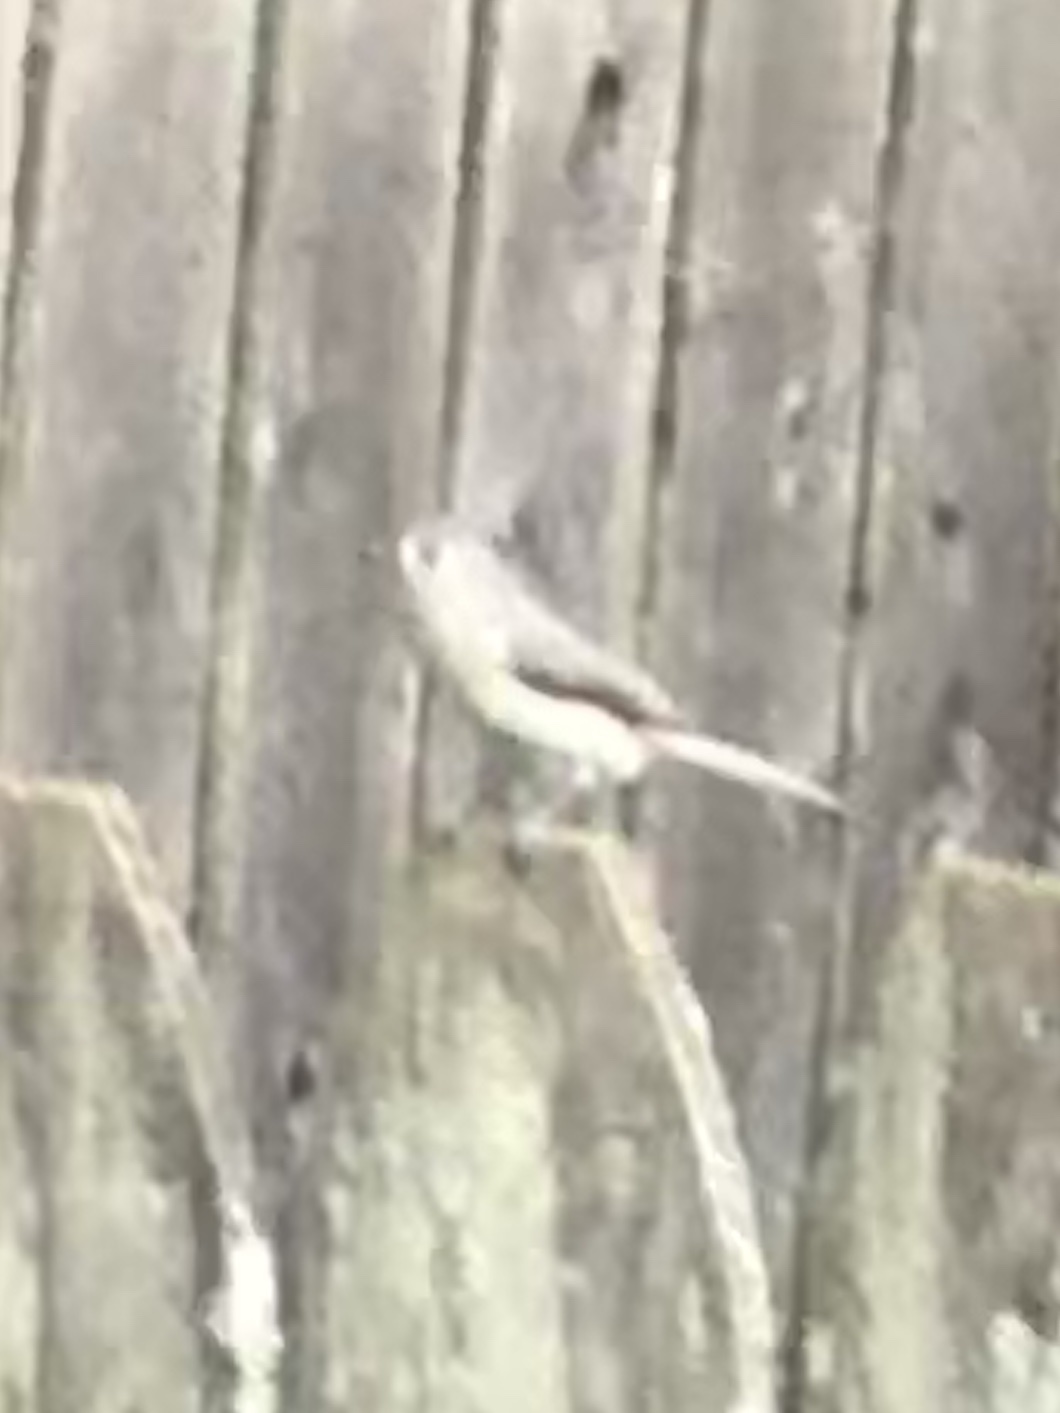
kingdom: Animalia
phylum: Chordata
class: Aves
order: Passeriformes
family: Paridae
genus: Baeolophus
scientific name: Baeolophus bicolor
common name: Tufted titmouse
